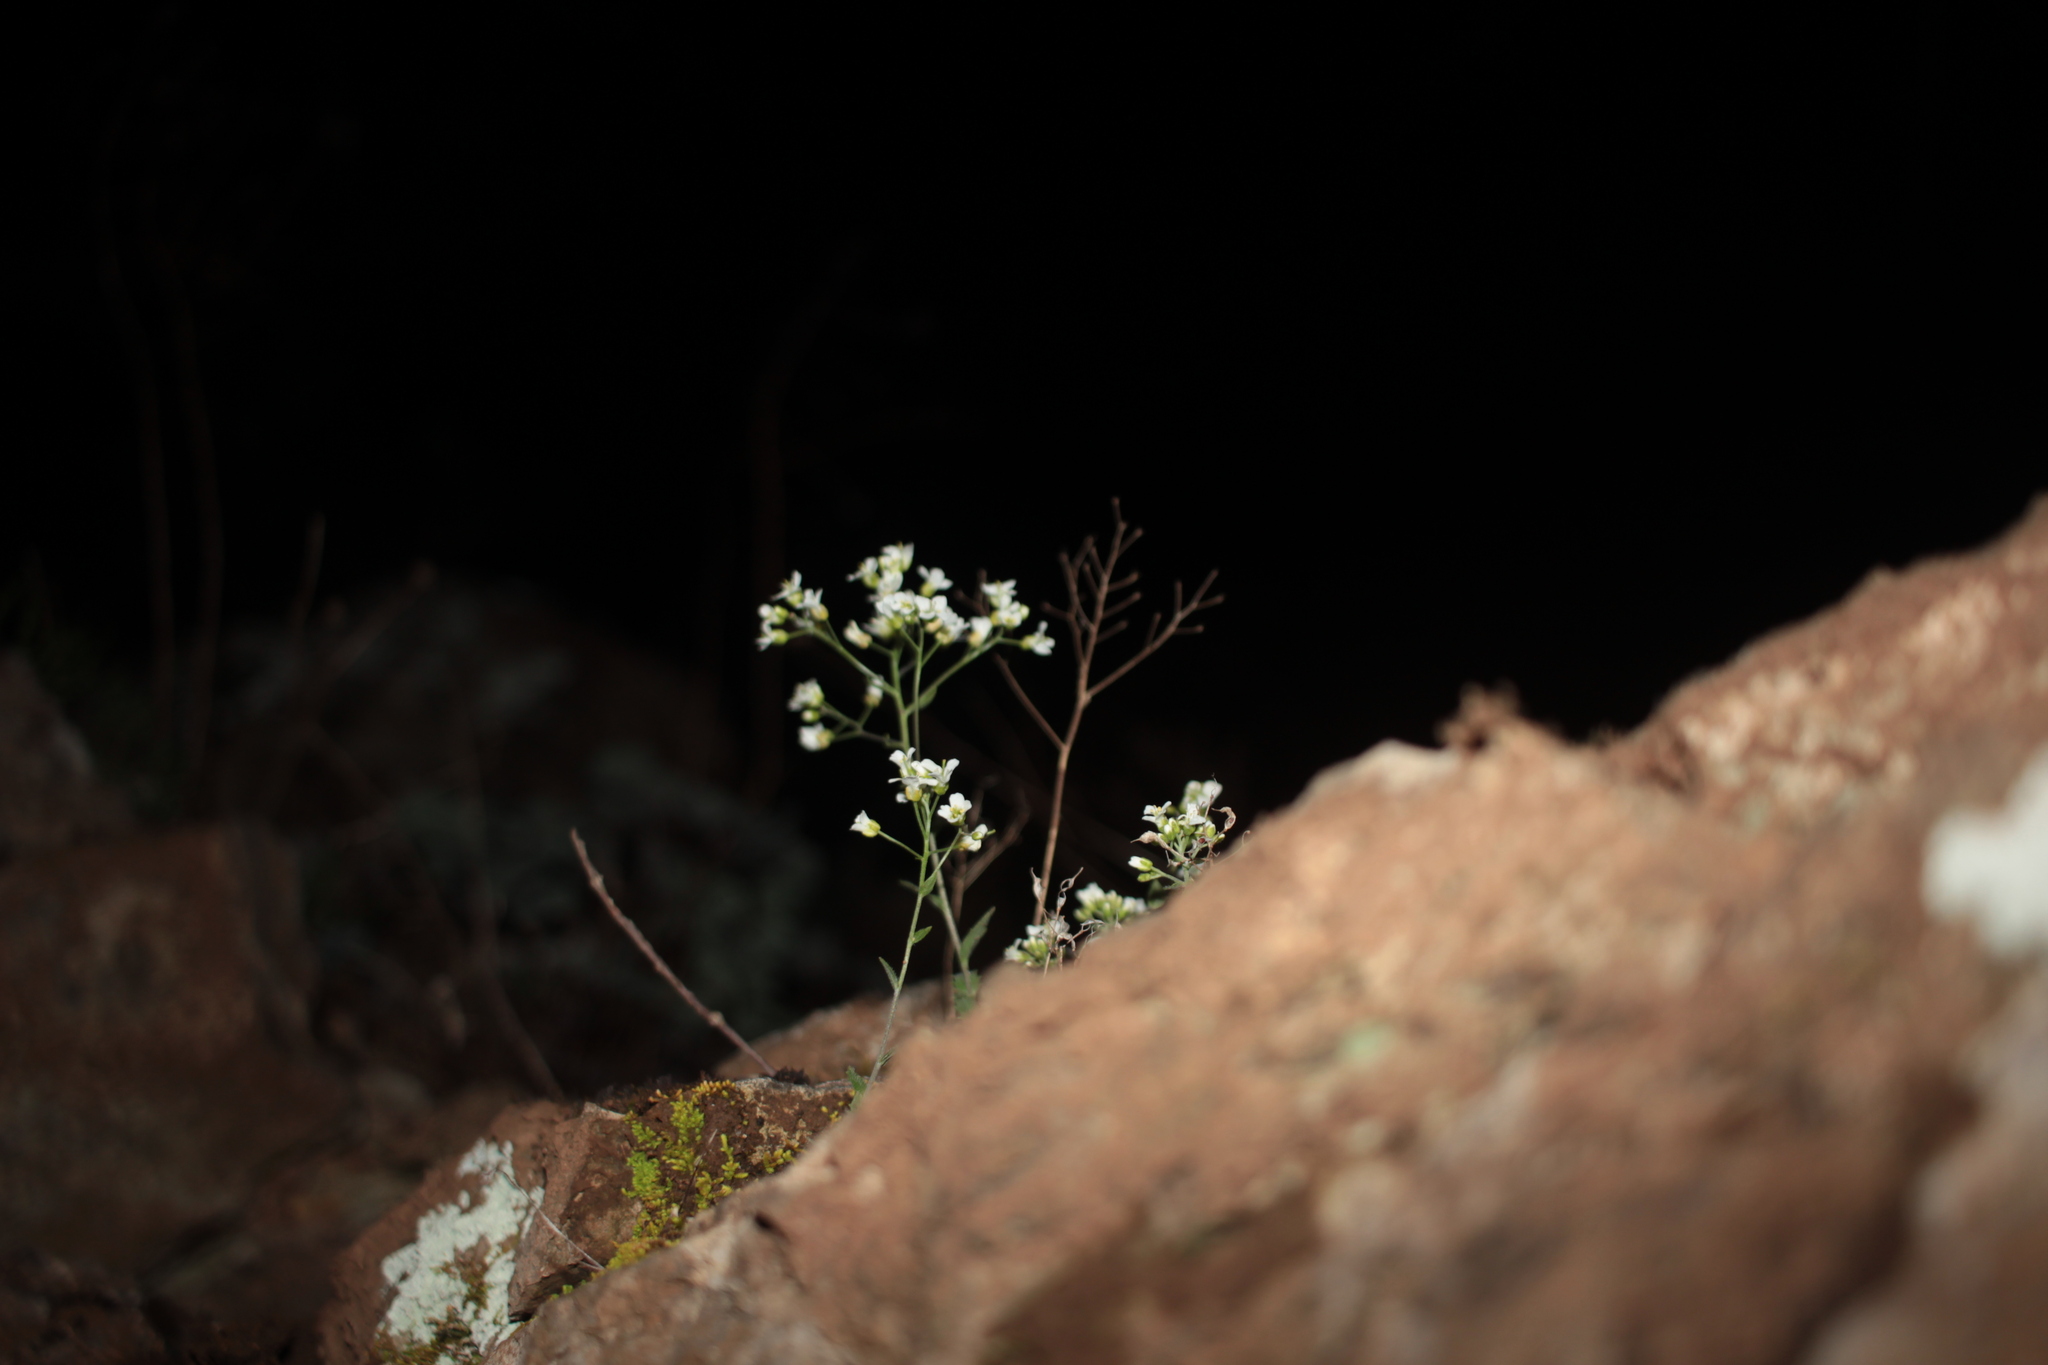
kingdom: Plantae
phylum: Tracheophyta
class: Magnoliopsida
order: Brassicales
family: Brassicaceae
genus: Draba
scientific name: Draba ramosissima
